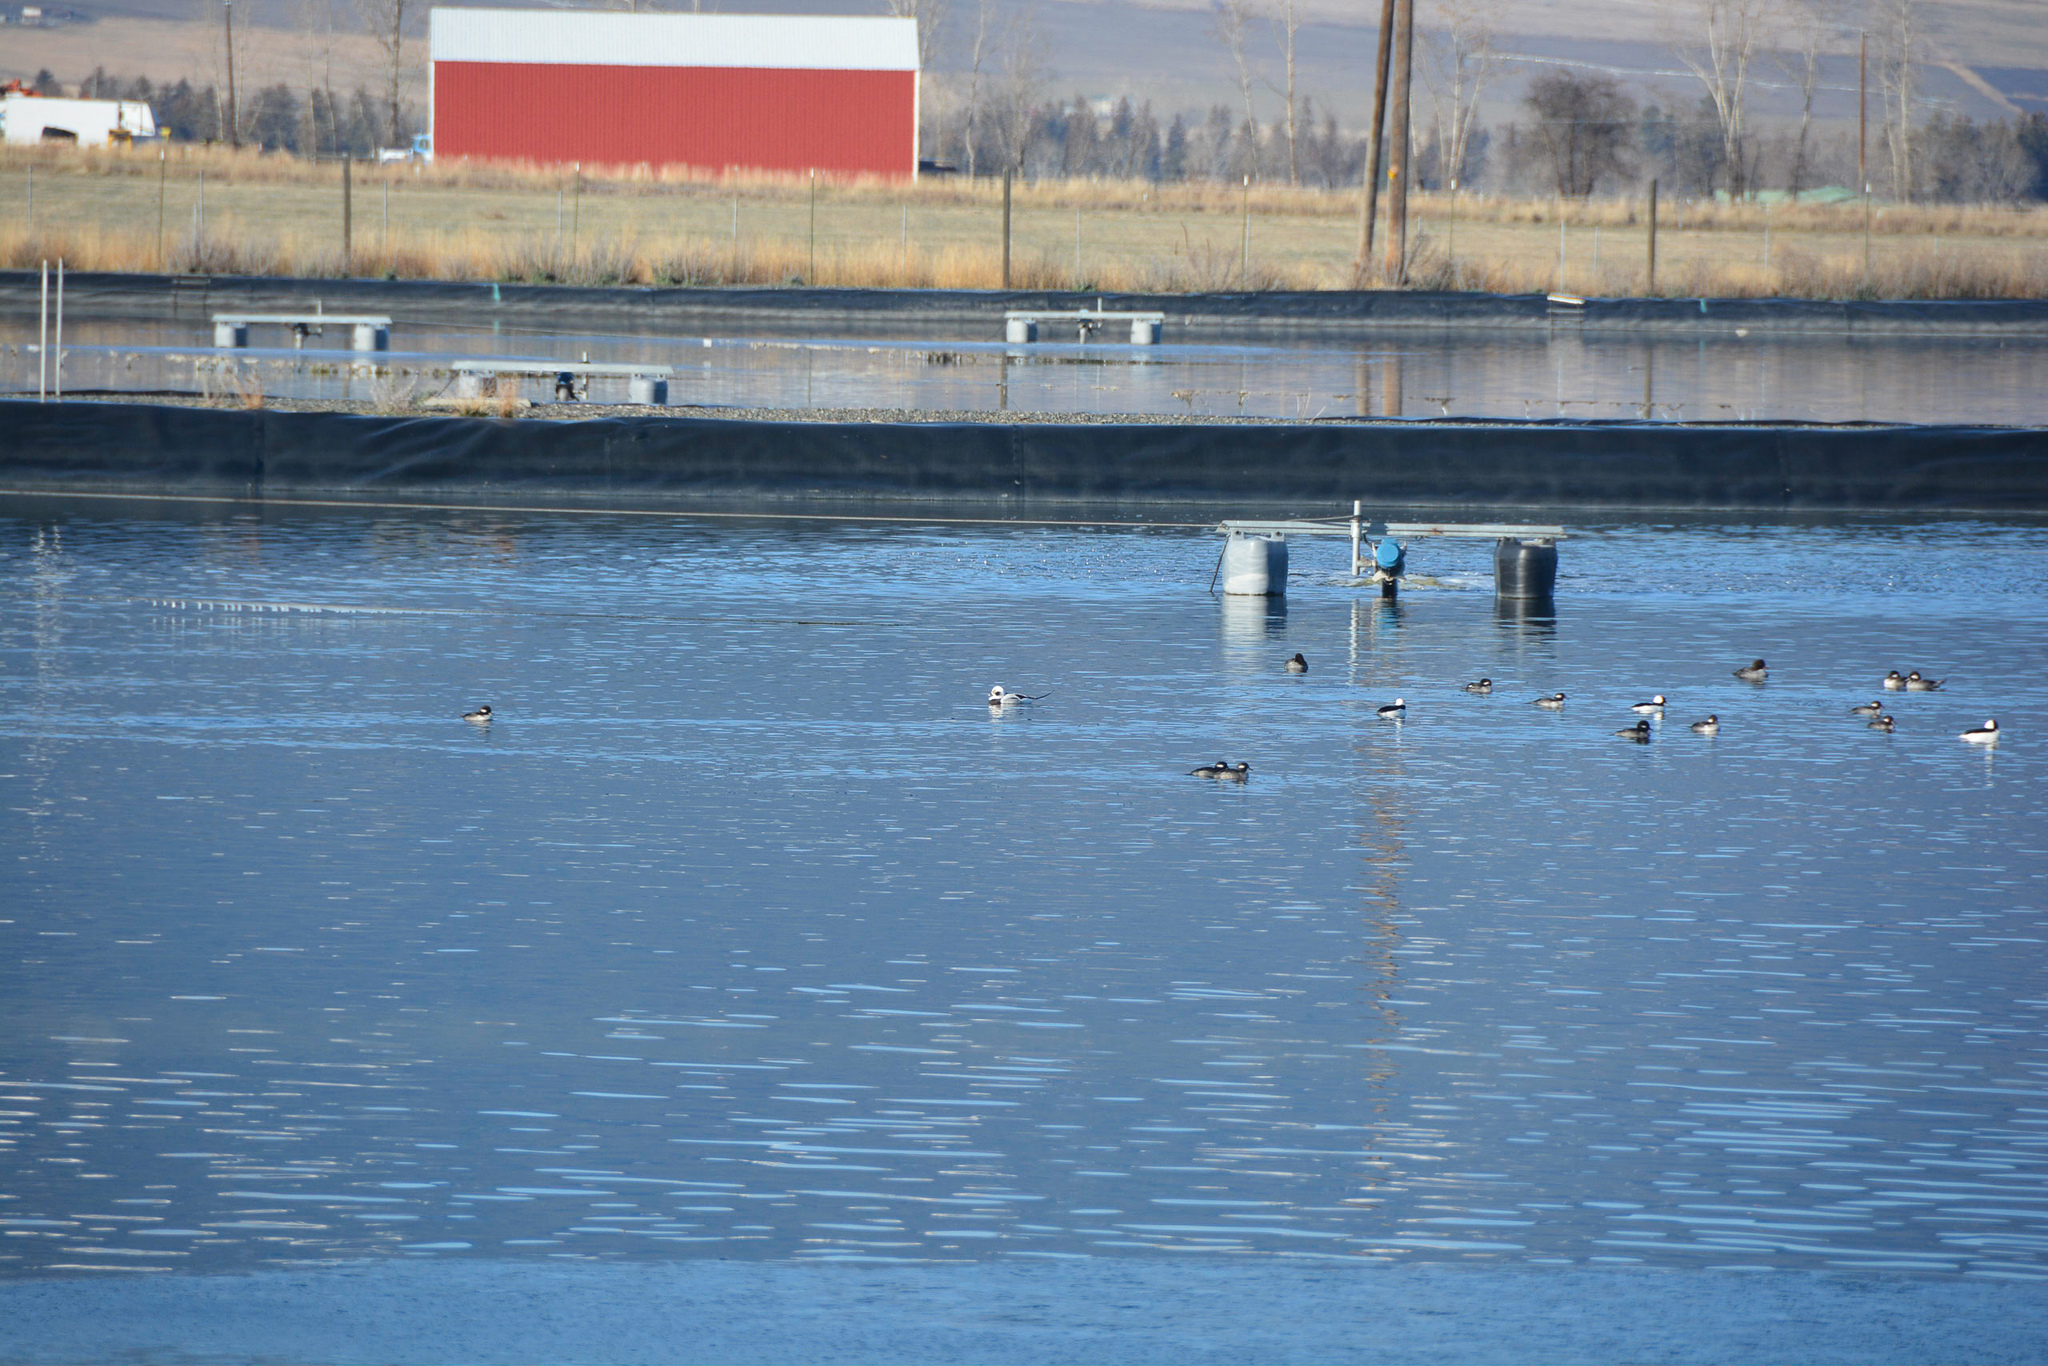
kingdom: Animalia
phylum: Chordata
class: Aves
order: Anseriformes
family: Anatidae
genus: Clangula
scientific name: Clangula hyemalis
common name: Long-tailed duck
